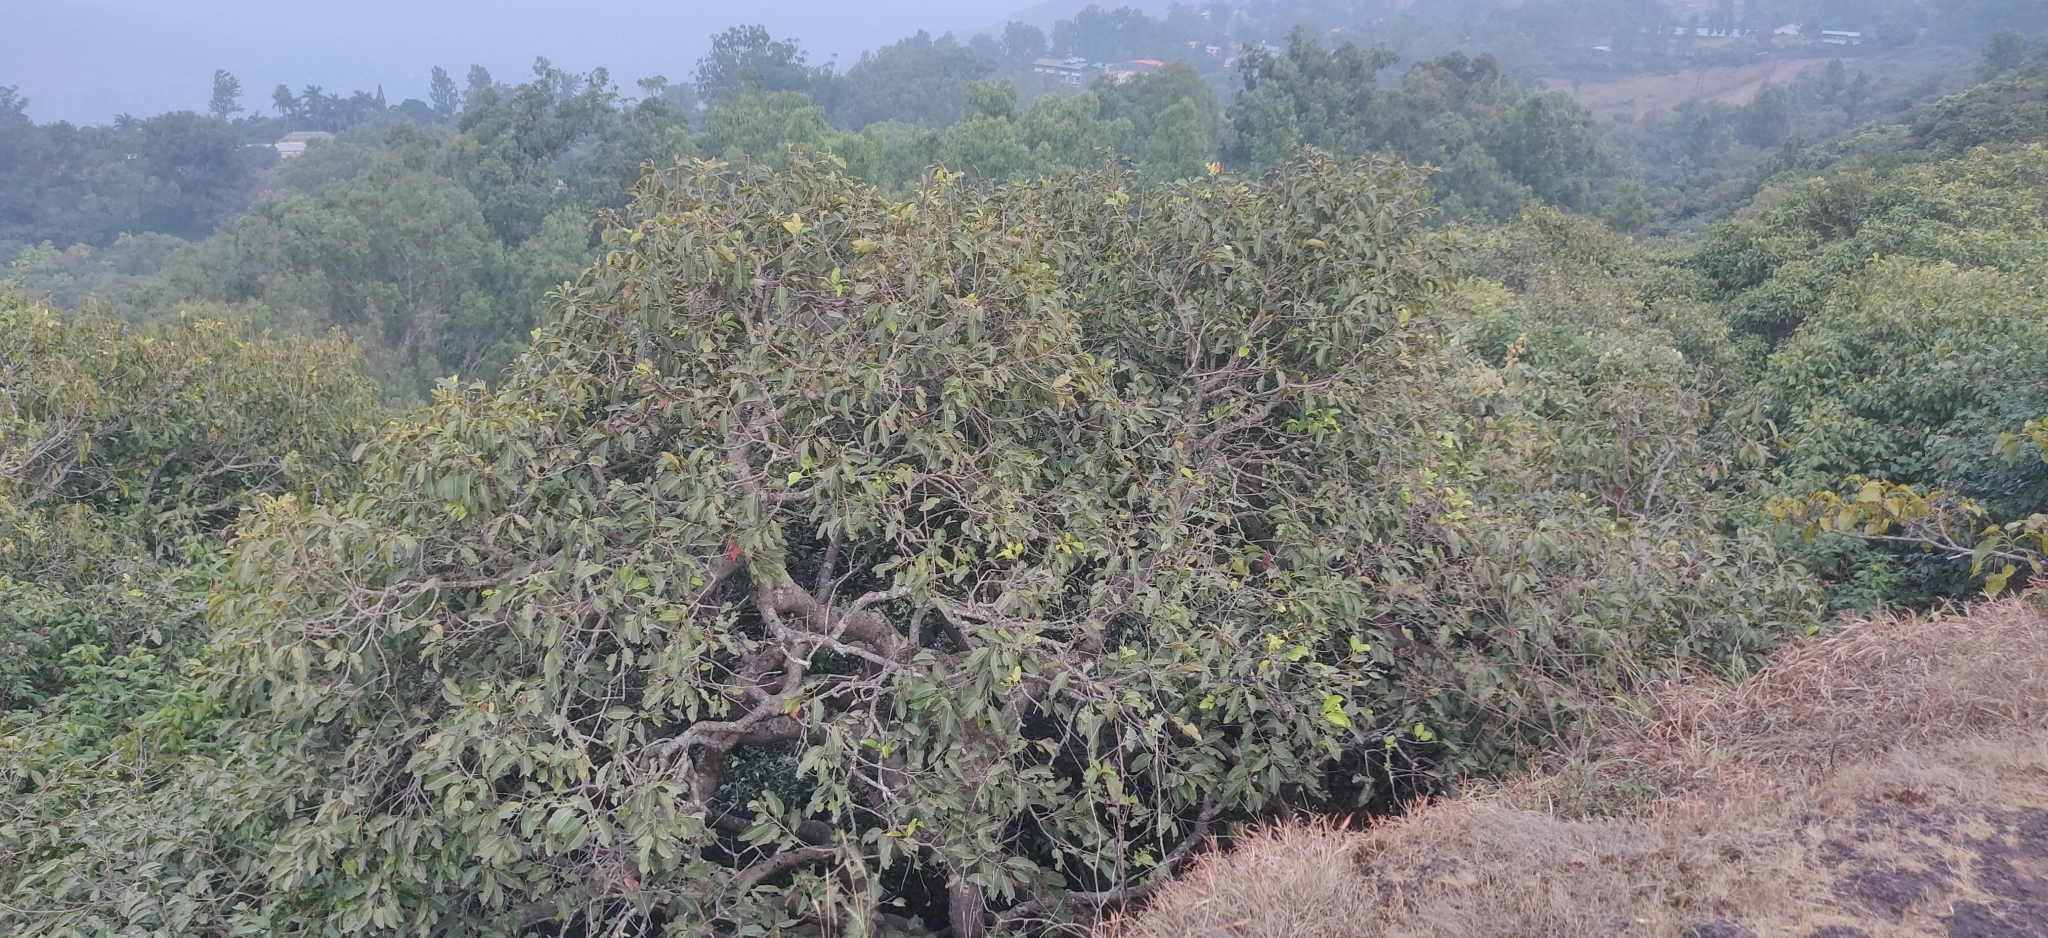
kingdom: Plantae
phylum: Tracheophyta
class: Magnoliopsida
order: Myrtales
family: Myrtaceae
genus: Syzygium
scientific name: Syzygium cumini
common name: Java plum
